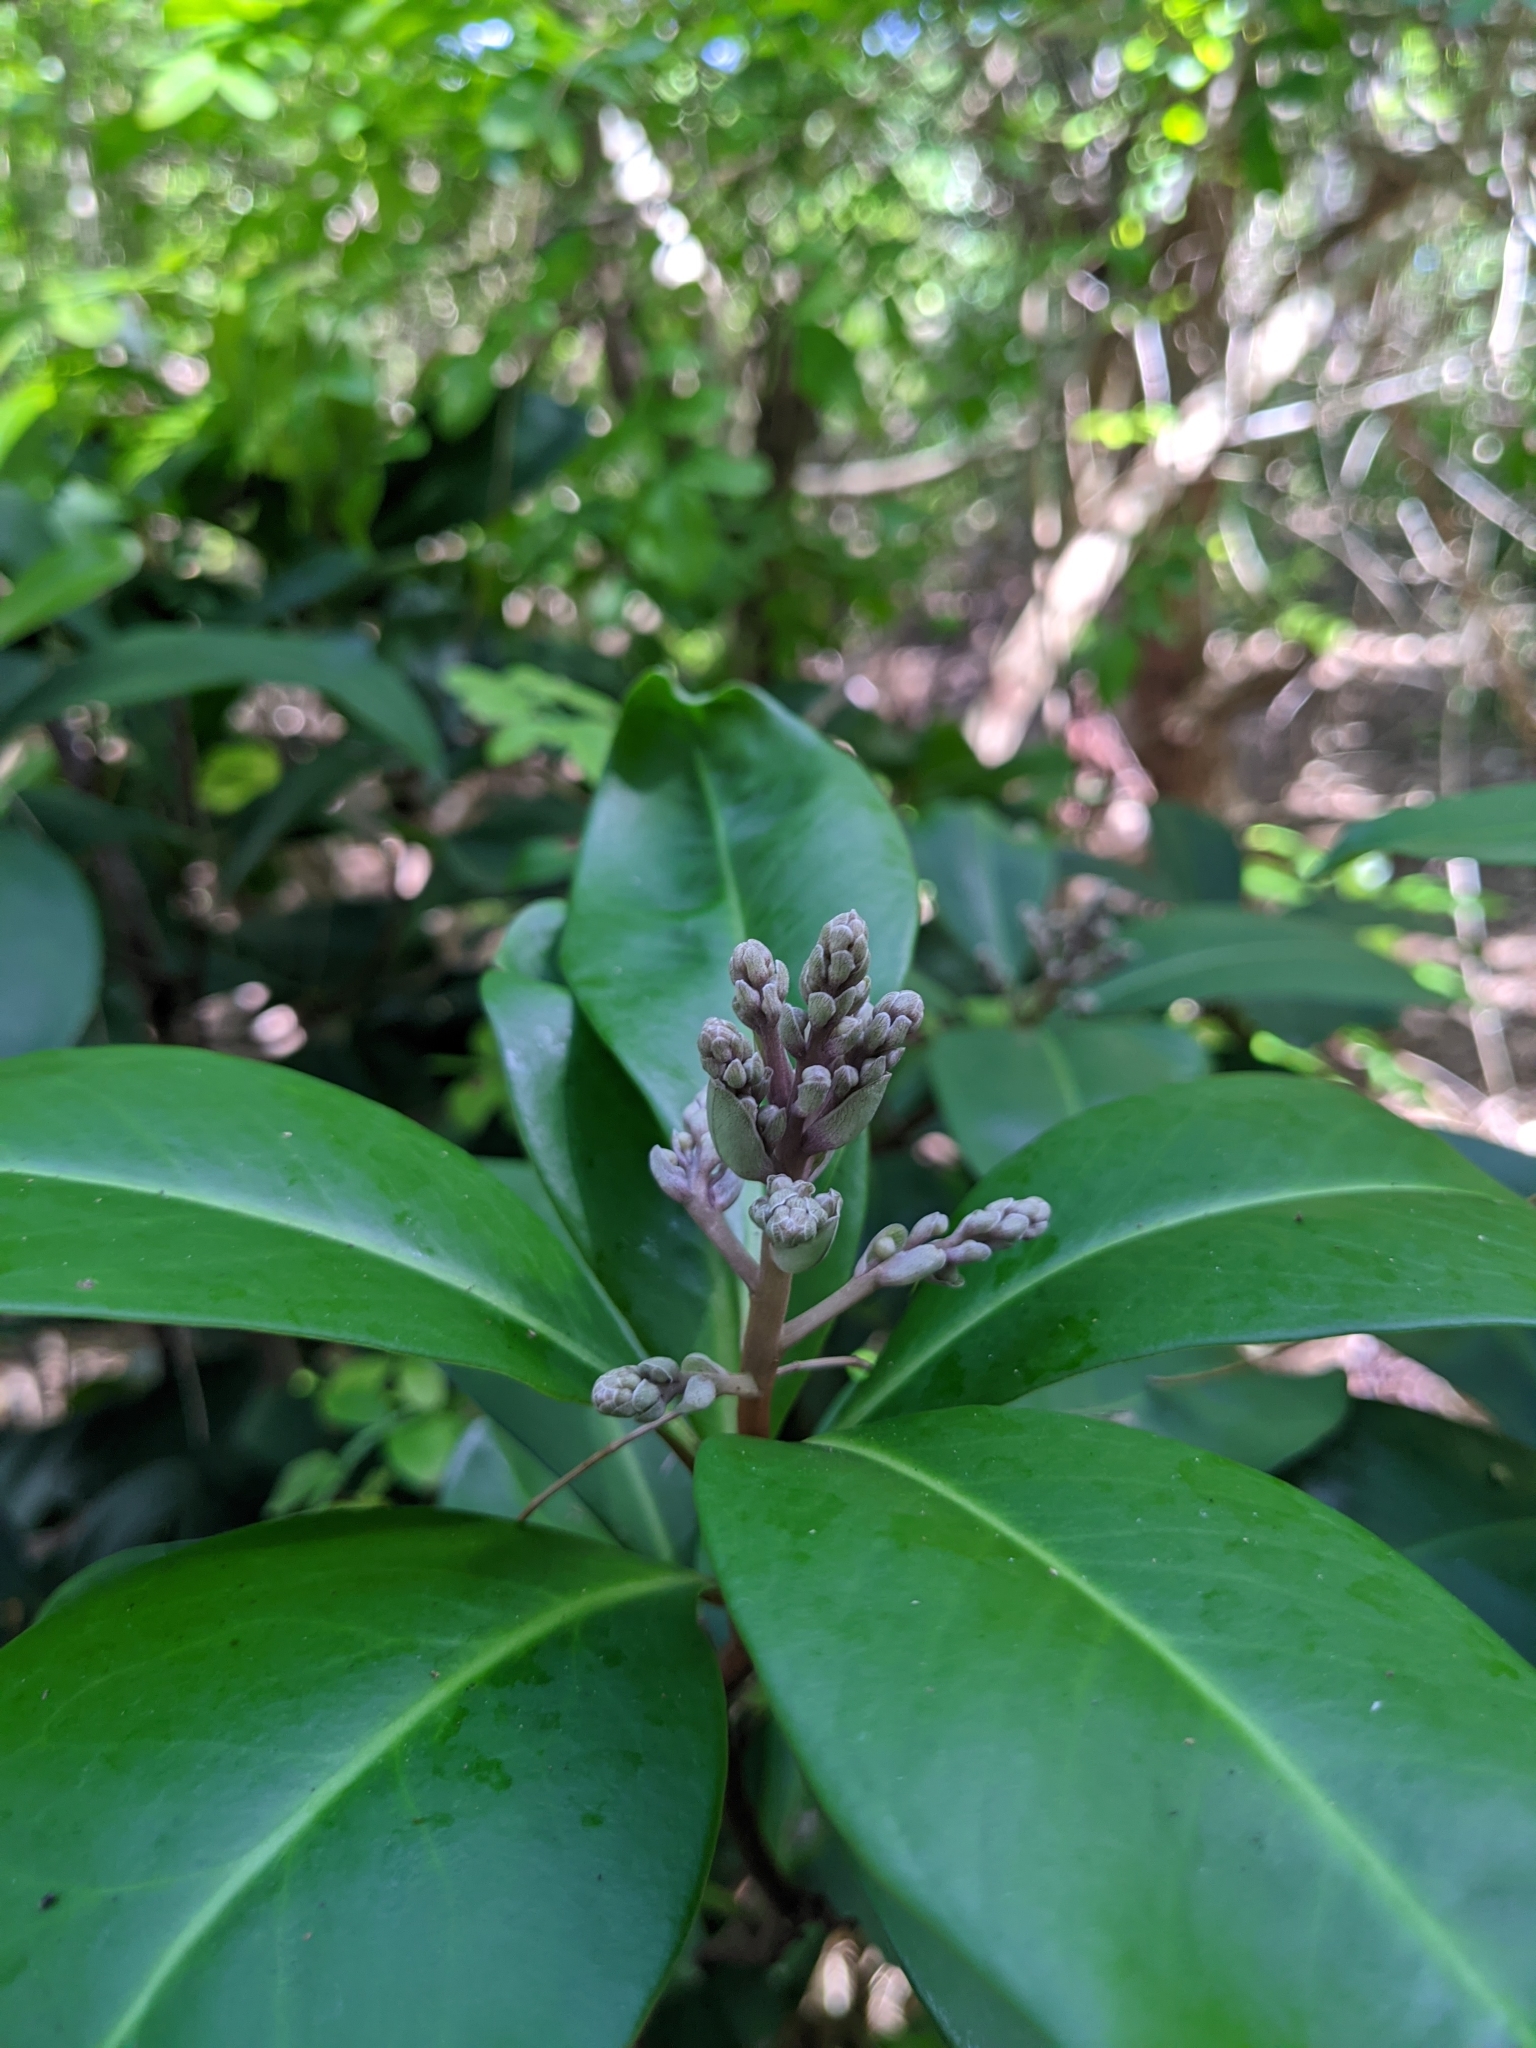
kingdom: Plantae
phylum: Tracheophyta
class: Magnoliopsida
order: Ericales
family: Primulaceae
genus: Ardisia
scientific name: Ardisia escallonioides
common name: Island marlberry
